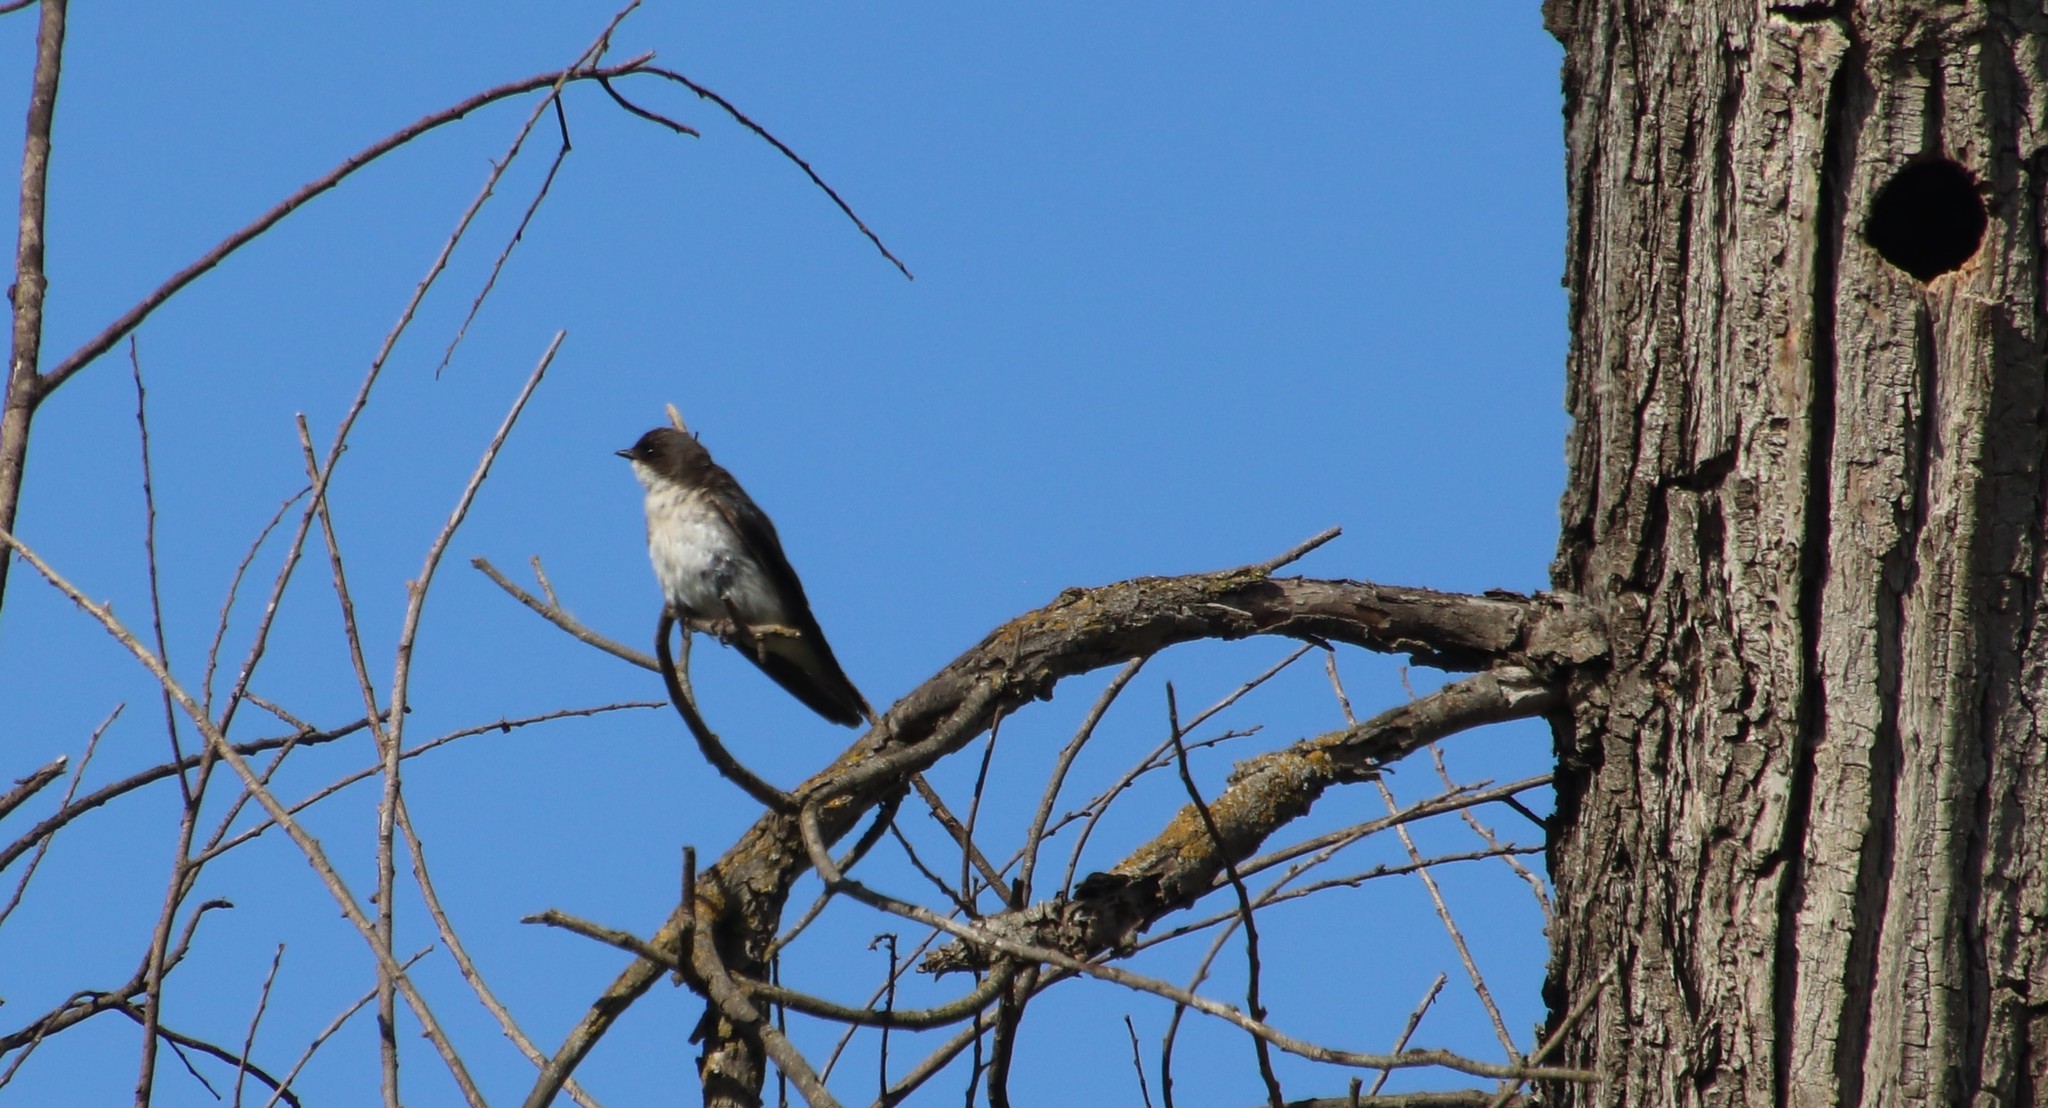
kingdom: Animalia
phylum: Chordata
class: Aves
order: Passeriformes
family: Hirundinidae
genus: Tachycineta
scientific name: Tachycineta bicolor
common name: Tree swallow
